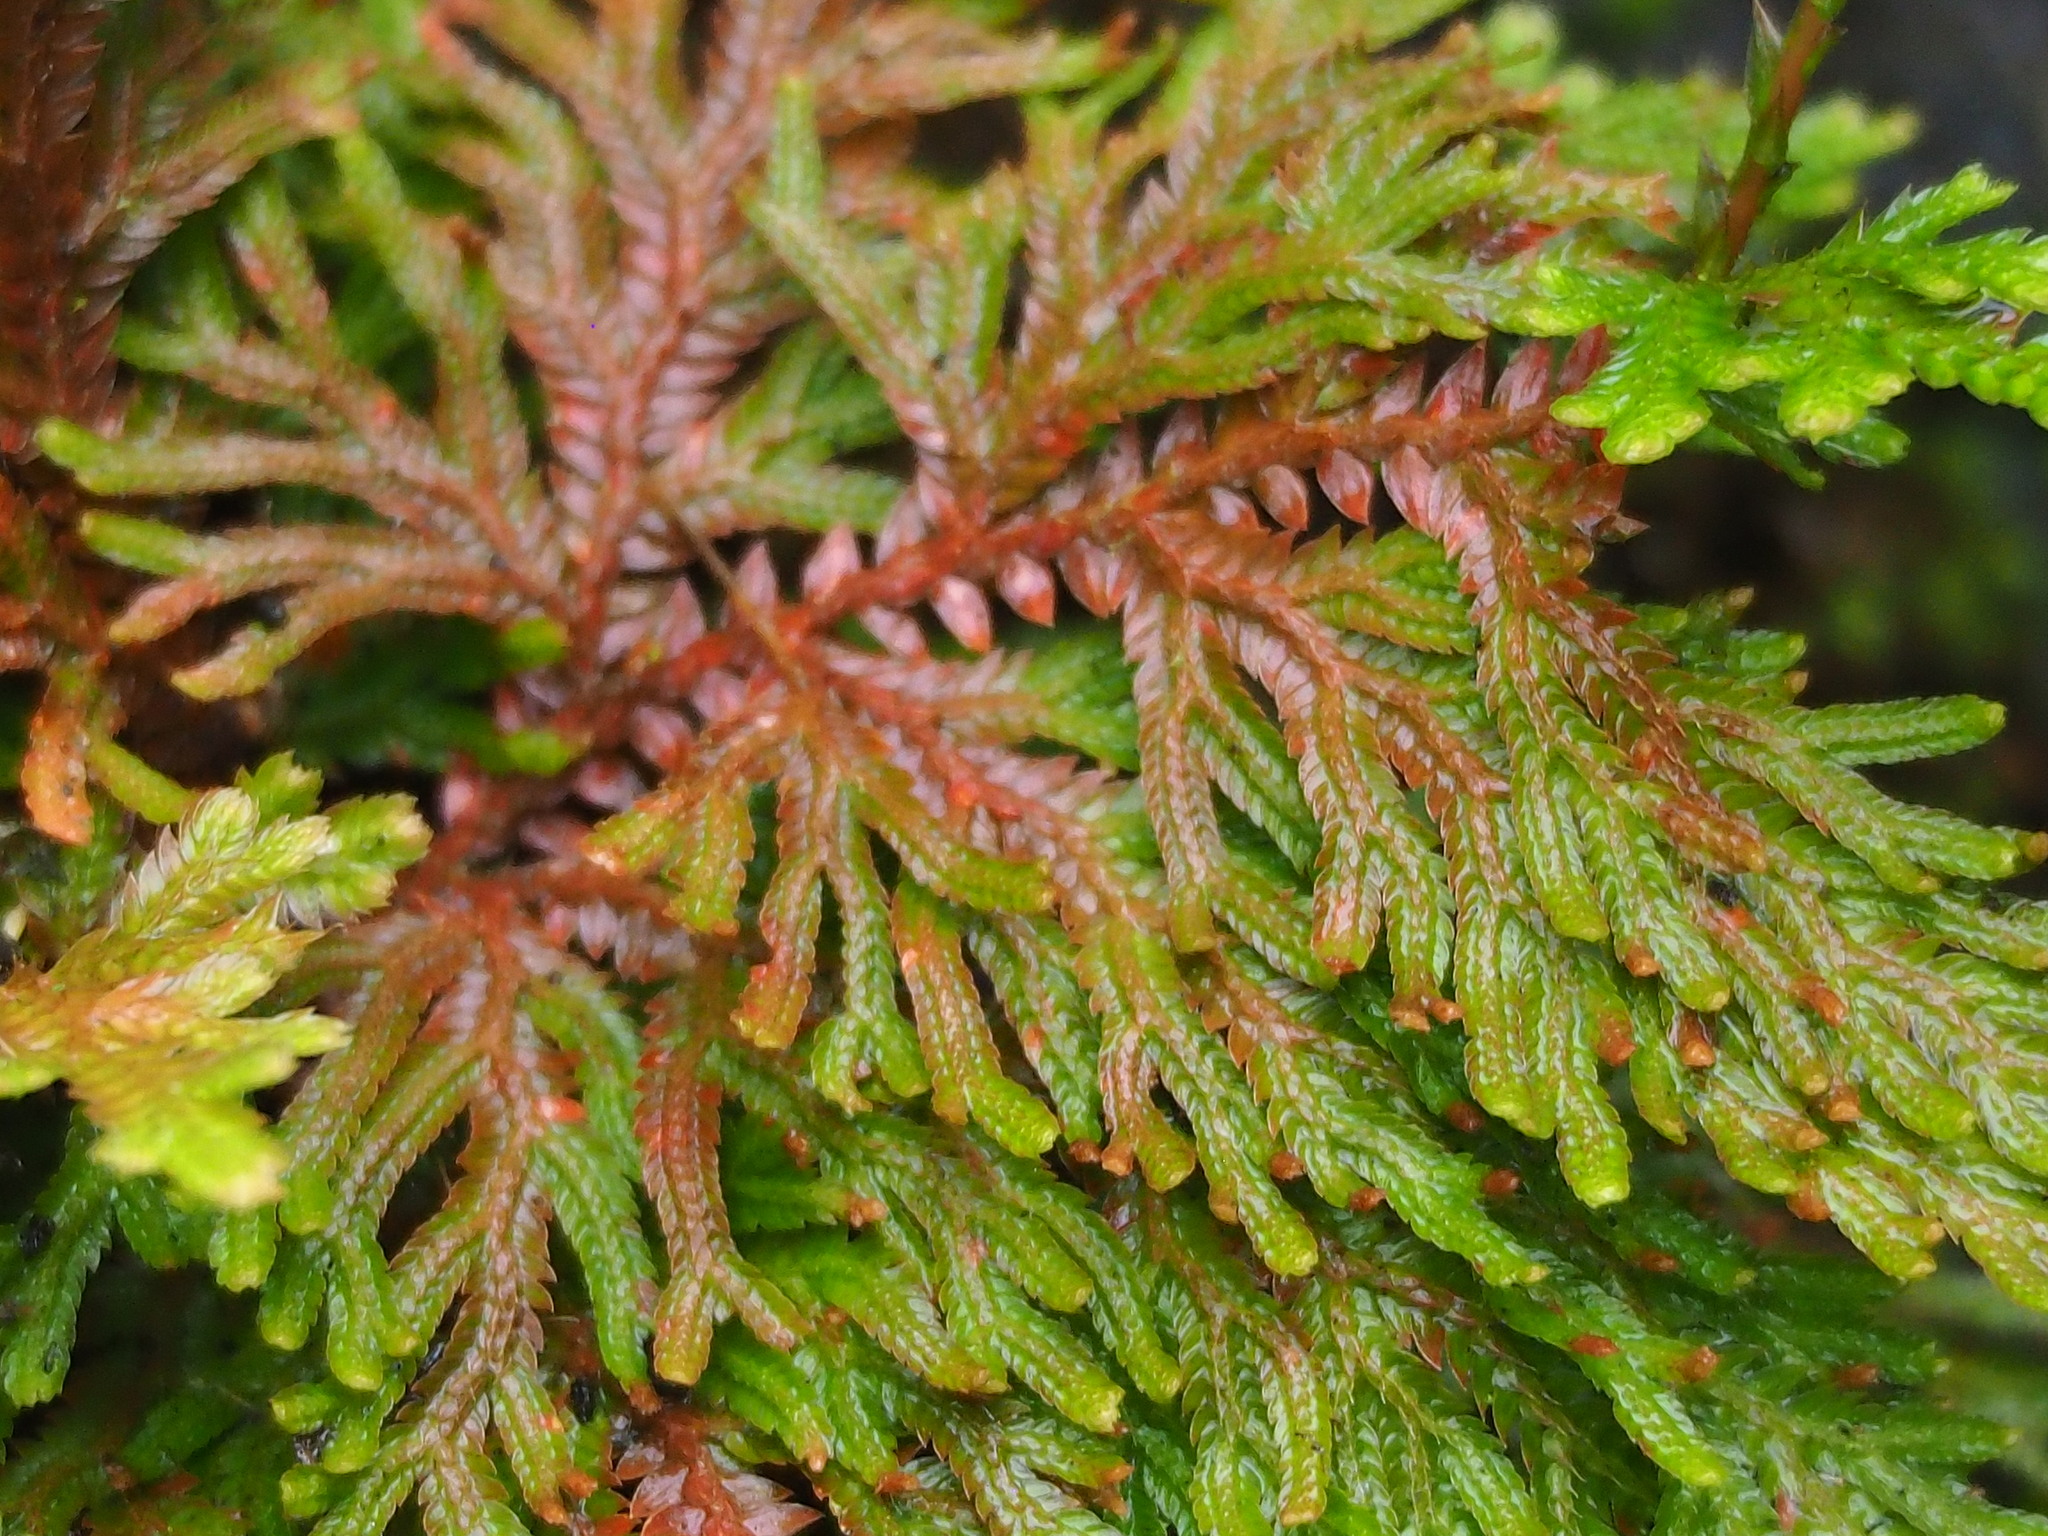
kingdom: Plantae
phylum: Tracheophyta
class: Lycopodiopsida
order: Selaginellales
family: Selaginellaceae
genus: Selaginella
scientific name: Selaginella moellendorffii
